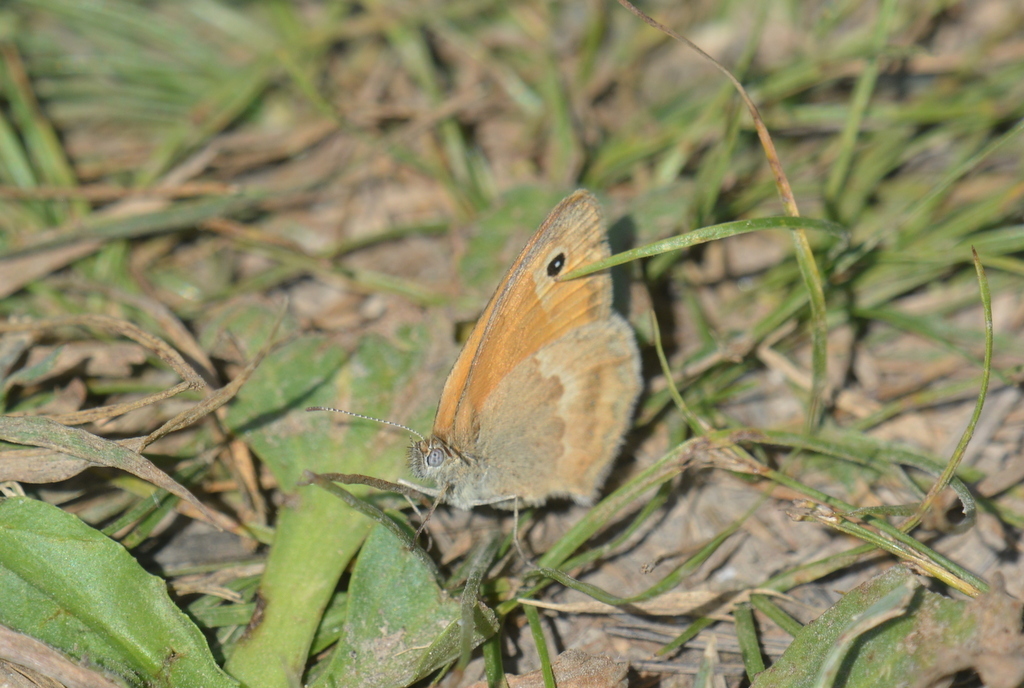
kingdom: Animalia
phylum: Arthropoda
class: Insecta
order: Lepidoptera
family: Nymphalidae
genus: Coenonympha
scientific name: Coenonympha pamphilus
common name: Small heath
